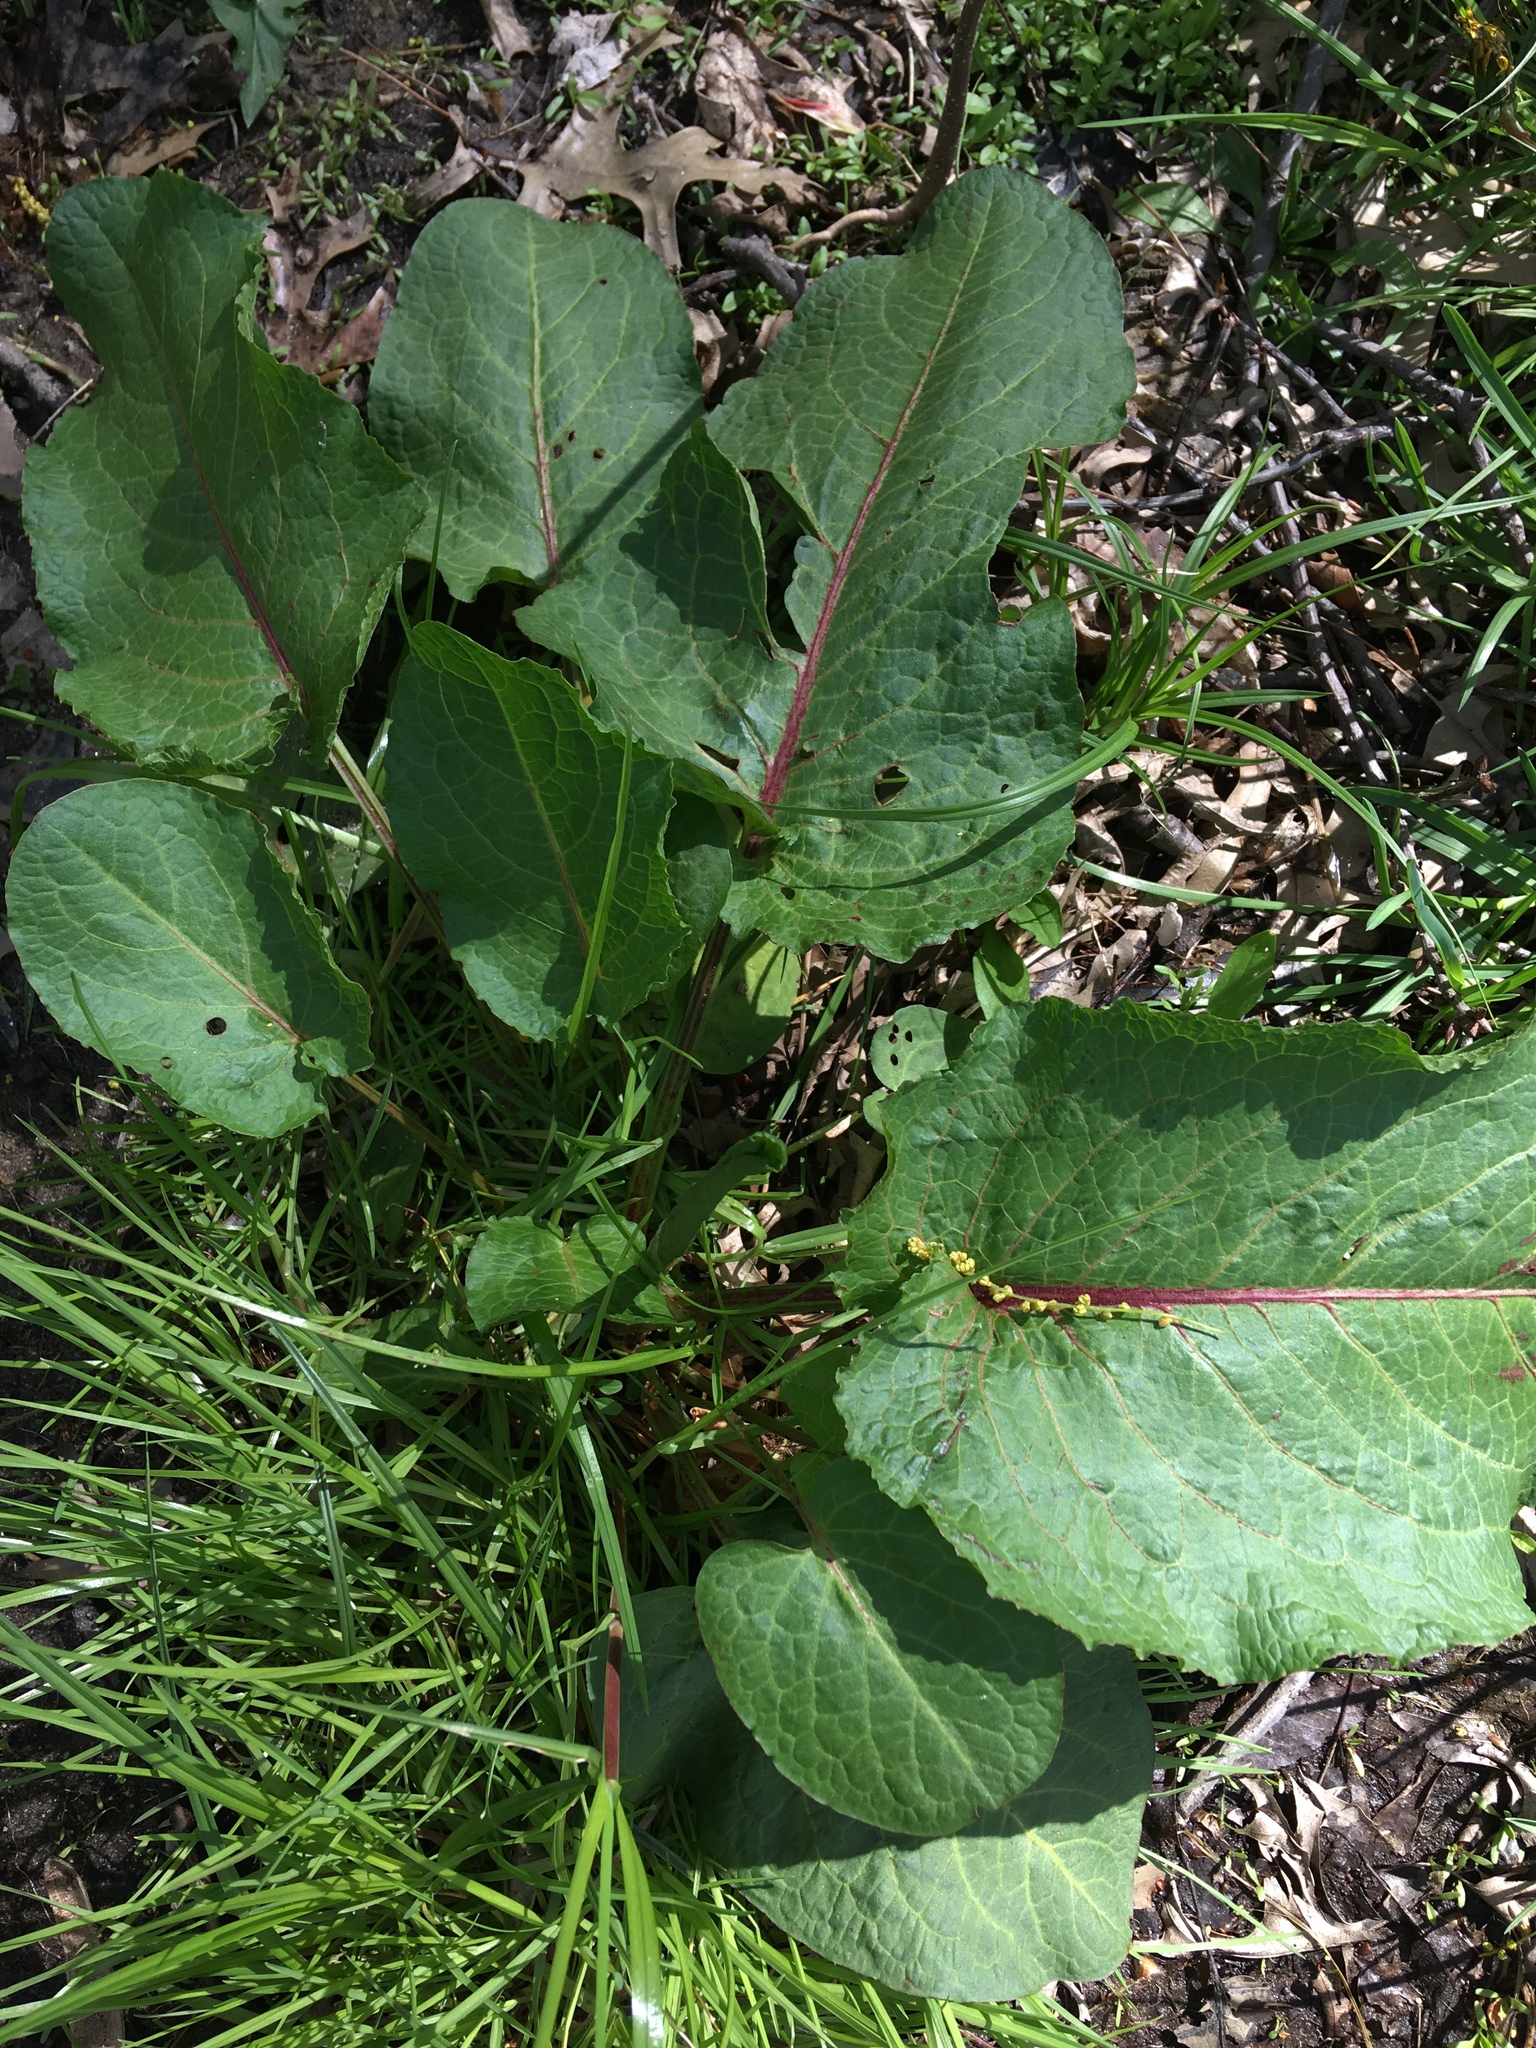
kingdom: Plantae
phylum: Tracheophyta
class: Magnoliopsida
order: Caryophyllales
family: Polygonaceae
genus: Rumex
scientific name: Rumex obtusifolius
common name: Bitter dock
